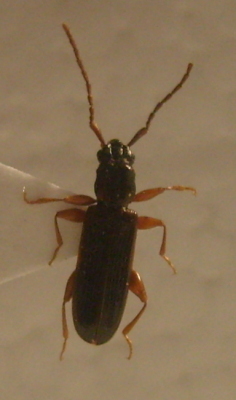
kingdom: Animalia
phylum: Arthropoda
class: Insecta
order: Coleoptera
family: Silvanidae
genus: Dendrophagus
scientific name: Dendrophagus crenatus
